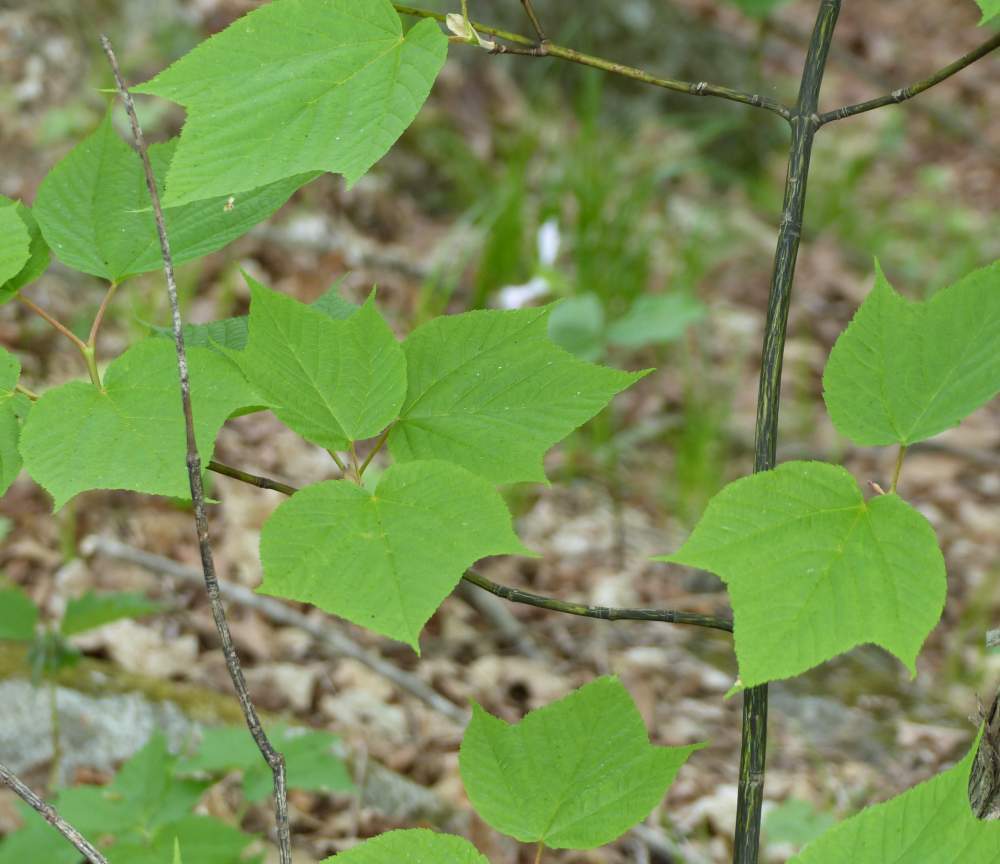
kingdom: Plantae
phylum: Tracheophyta
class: Magnoliopsida
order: Sapindales
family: Sapindaceae
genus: Acer
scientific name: Acer pensylvanicum
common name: Moosewood
